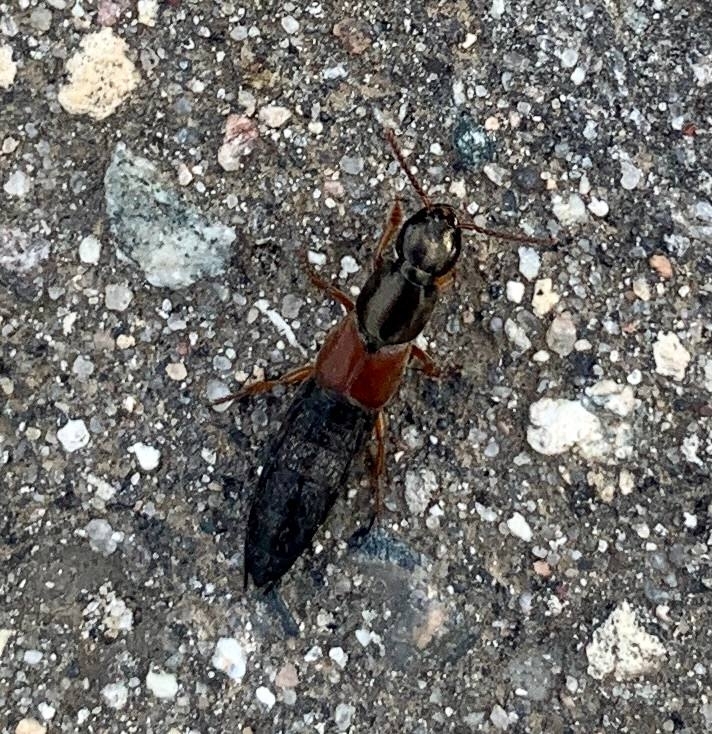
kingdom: Animalia
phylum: Arthropoda
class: Insecta
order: Coleoptera
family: Staphylinidae
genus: Ocypus
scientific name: Ocypus fulvipennis
